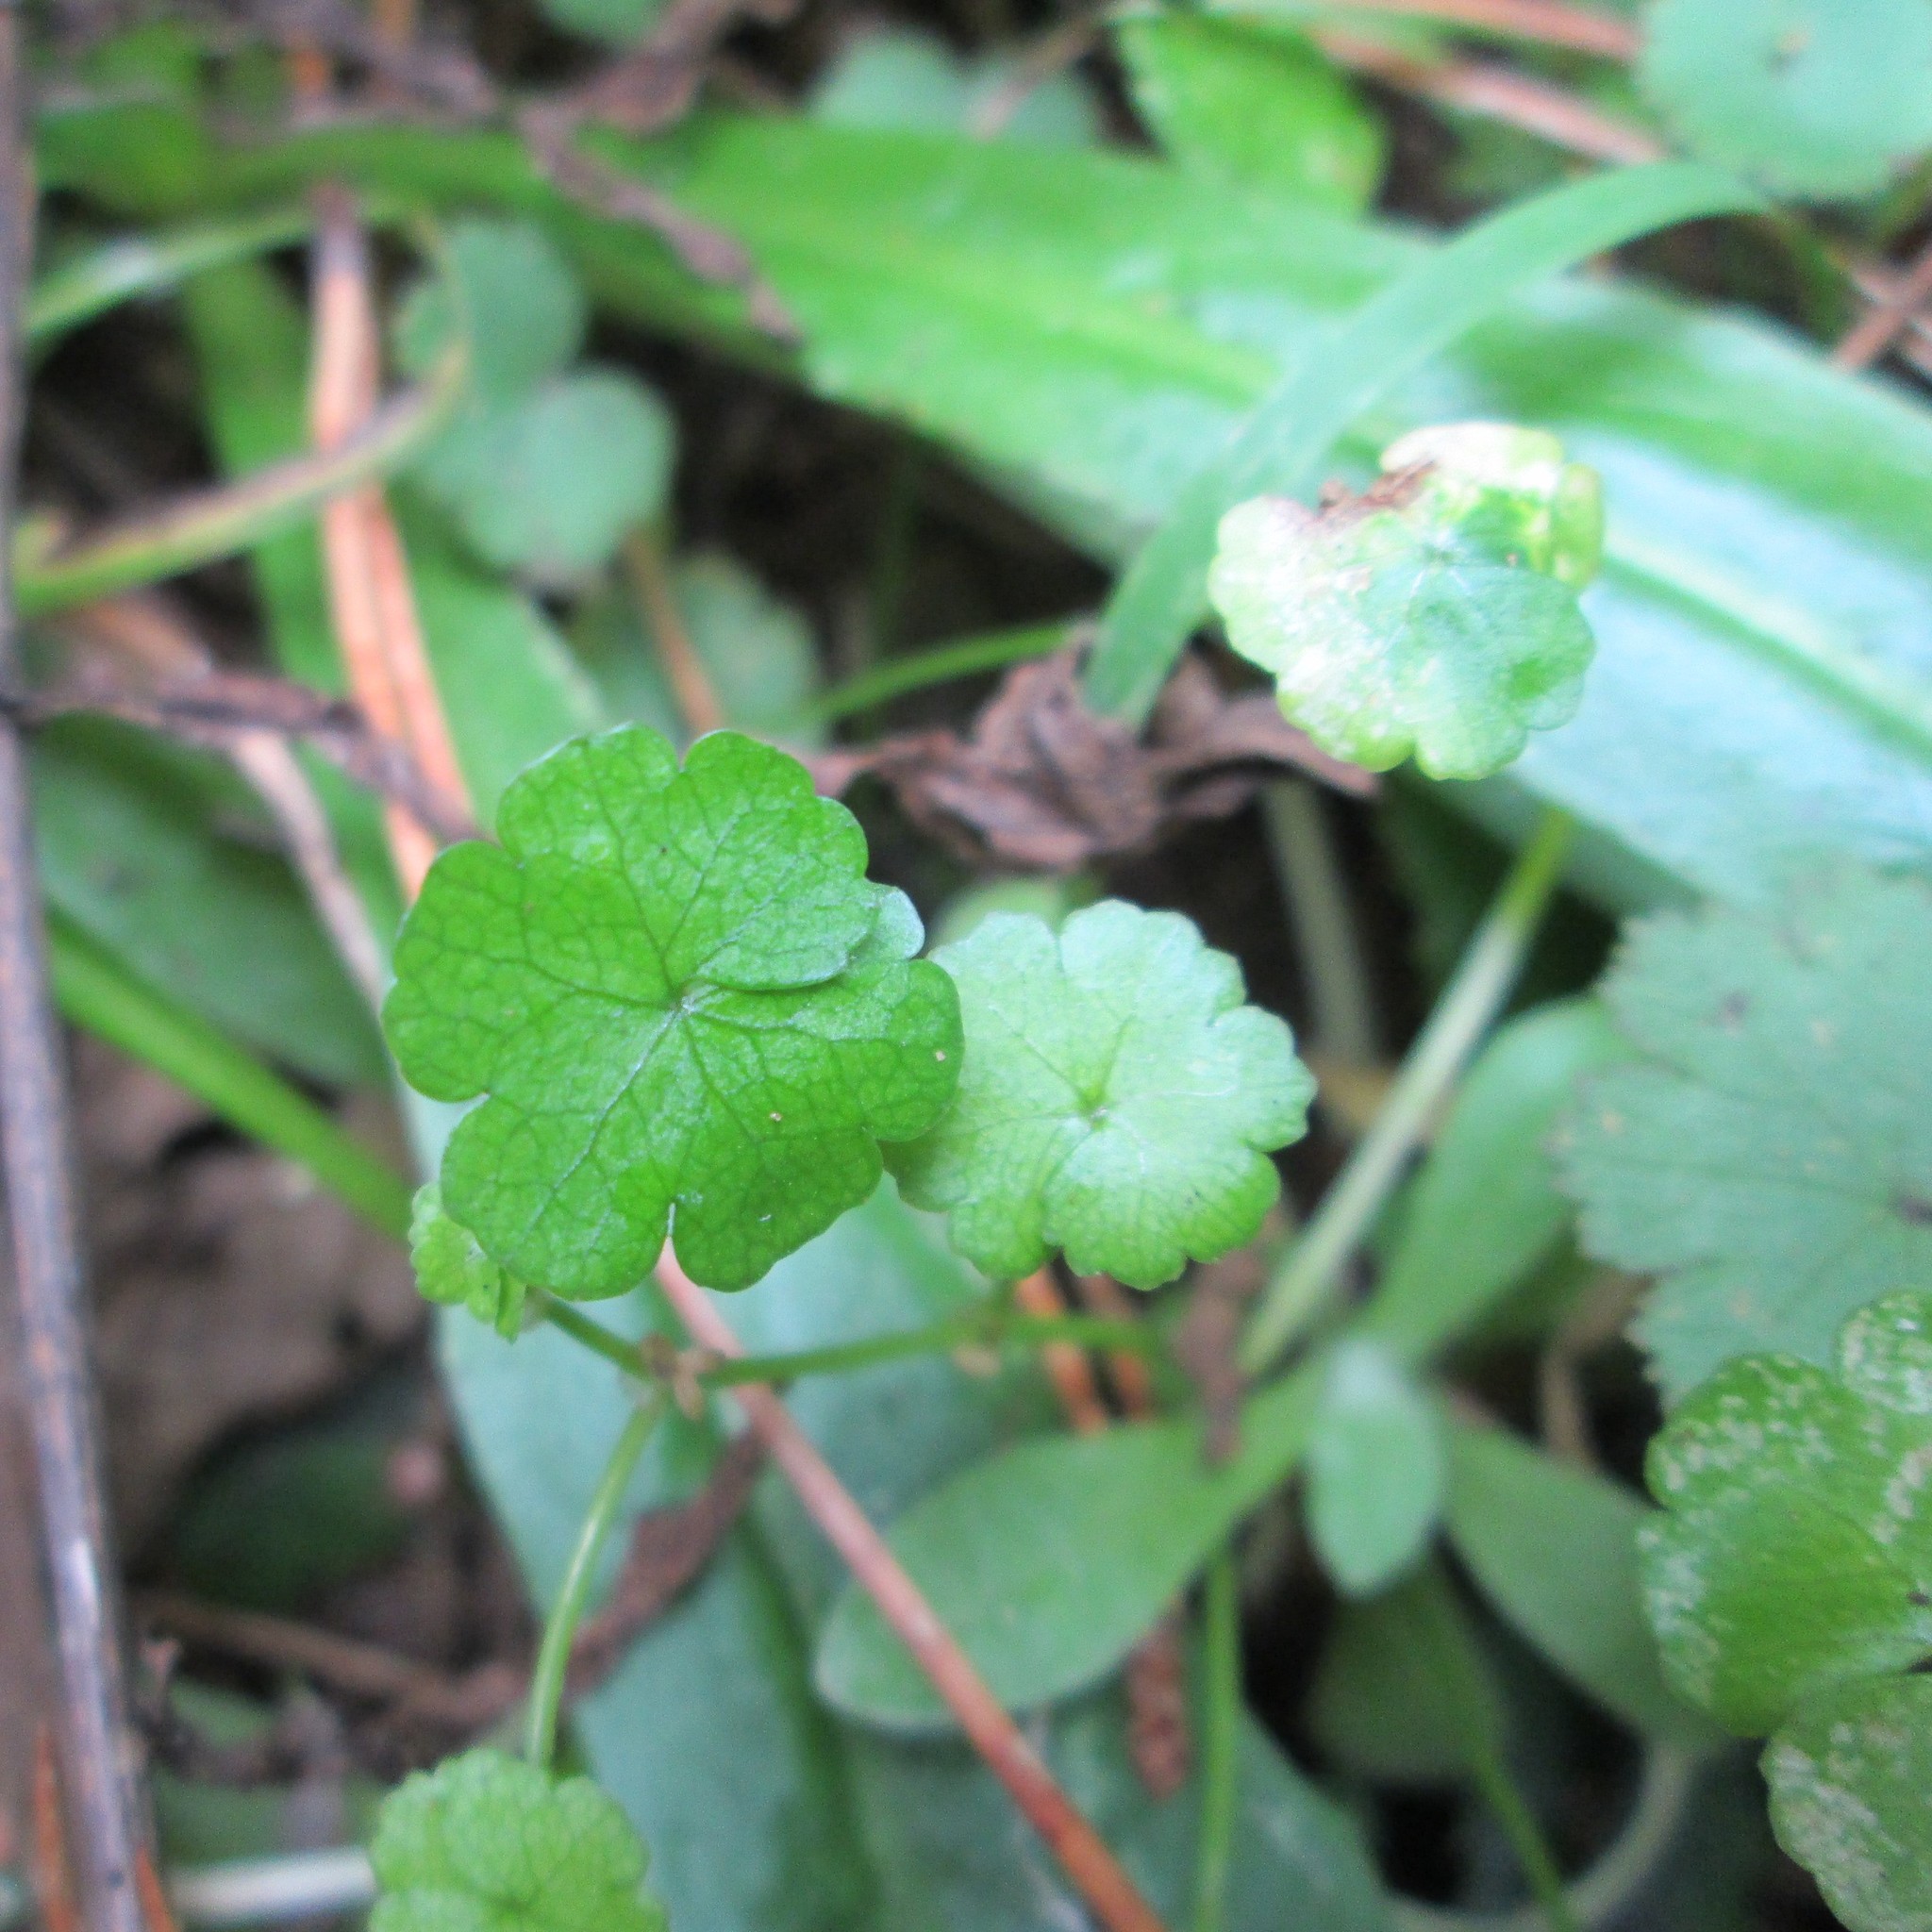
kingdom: Plantae
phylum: Tracheophyta
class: Magnoliopsida
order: Apiales
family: Araliaceae
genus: Hydrocotyle
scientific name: Hydrocotyle heteromeria
